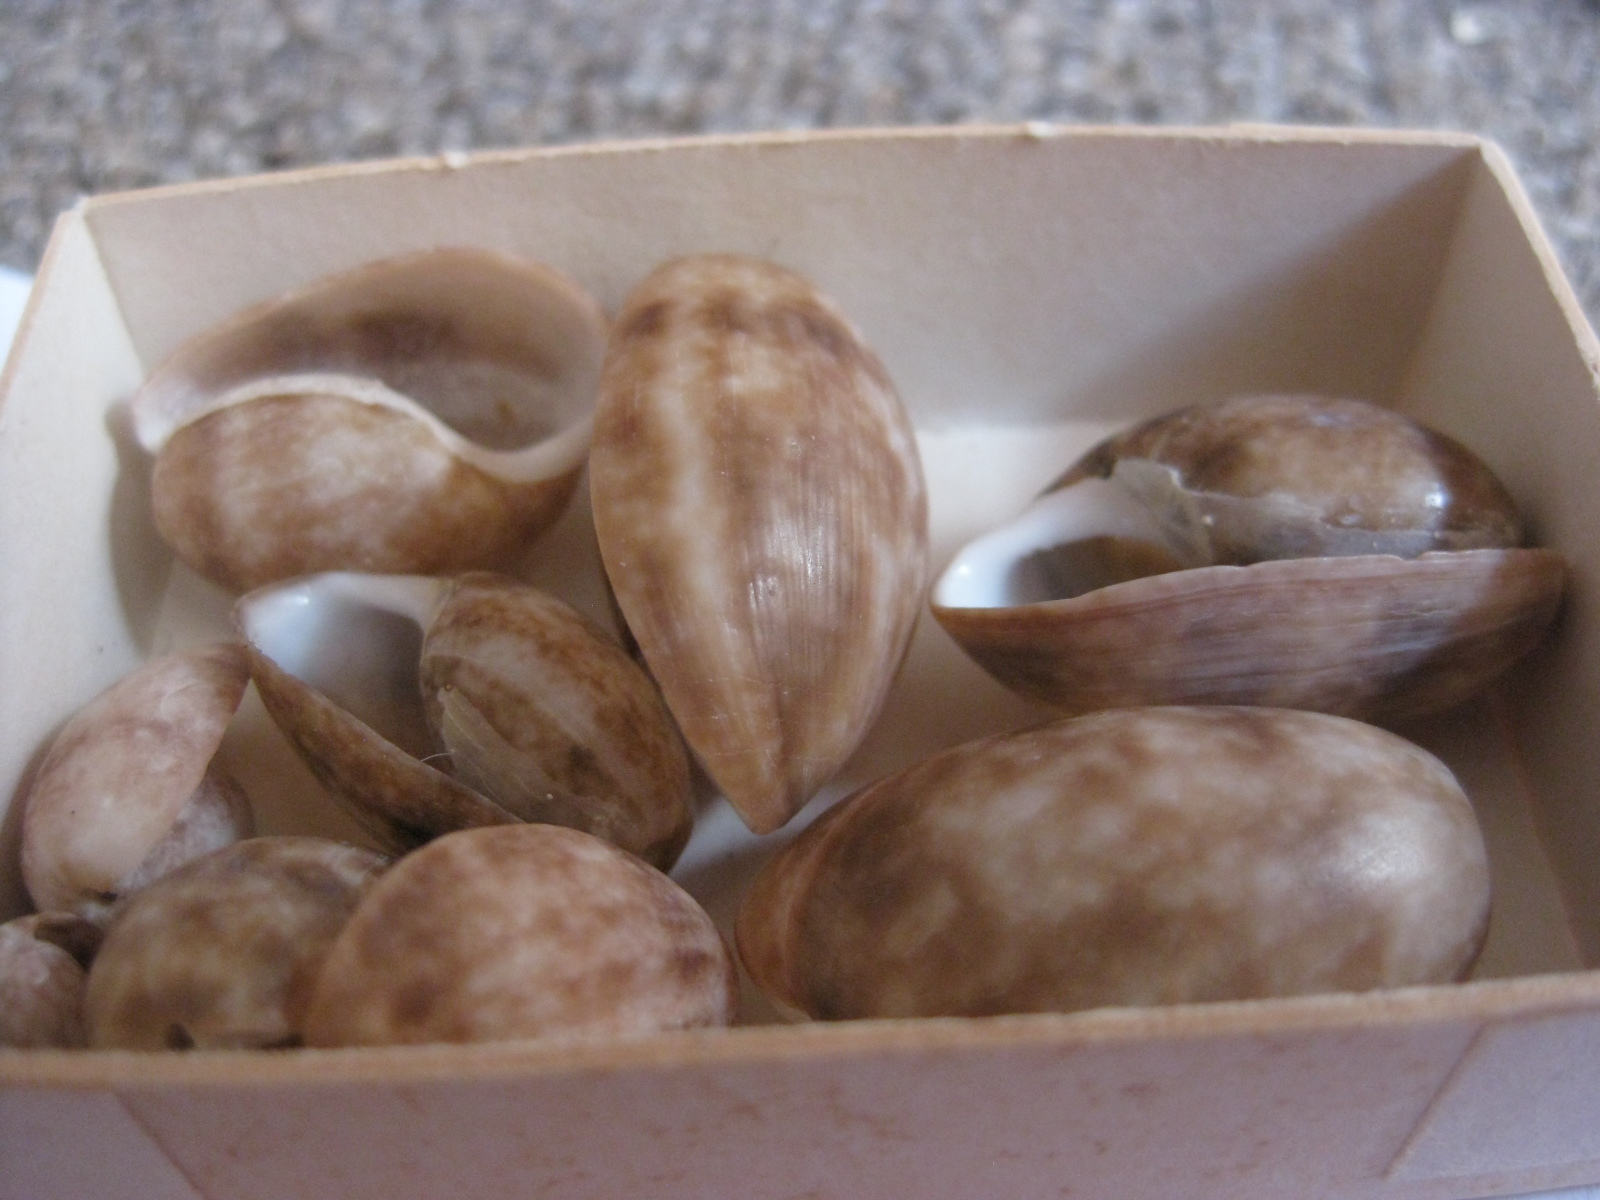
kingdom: Animalia
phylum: Mollusca
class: Gastropoda
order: Cephalaspidea
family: Bullidae
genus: Bulla
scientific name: Bulla quoyii
